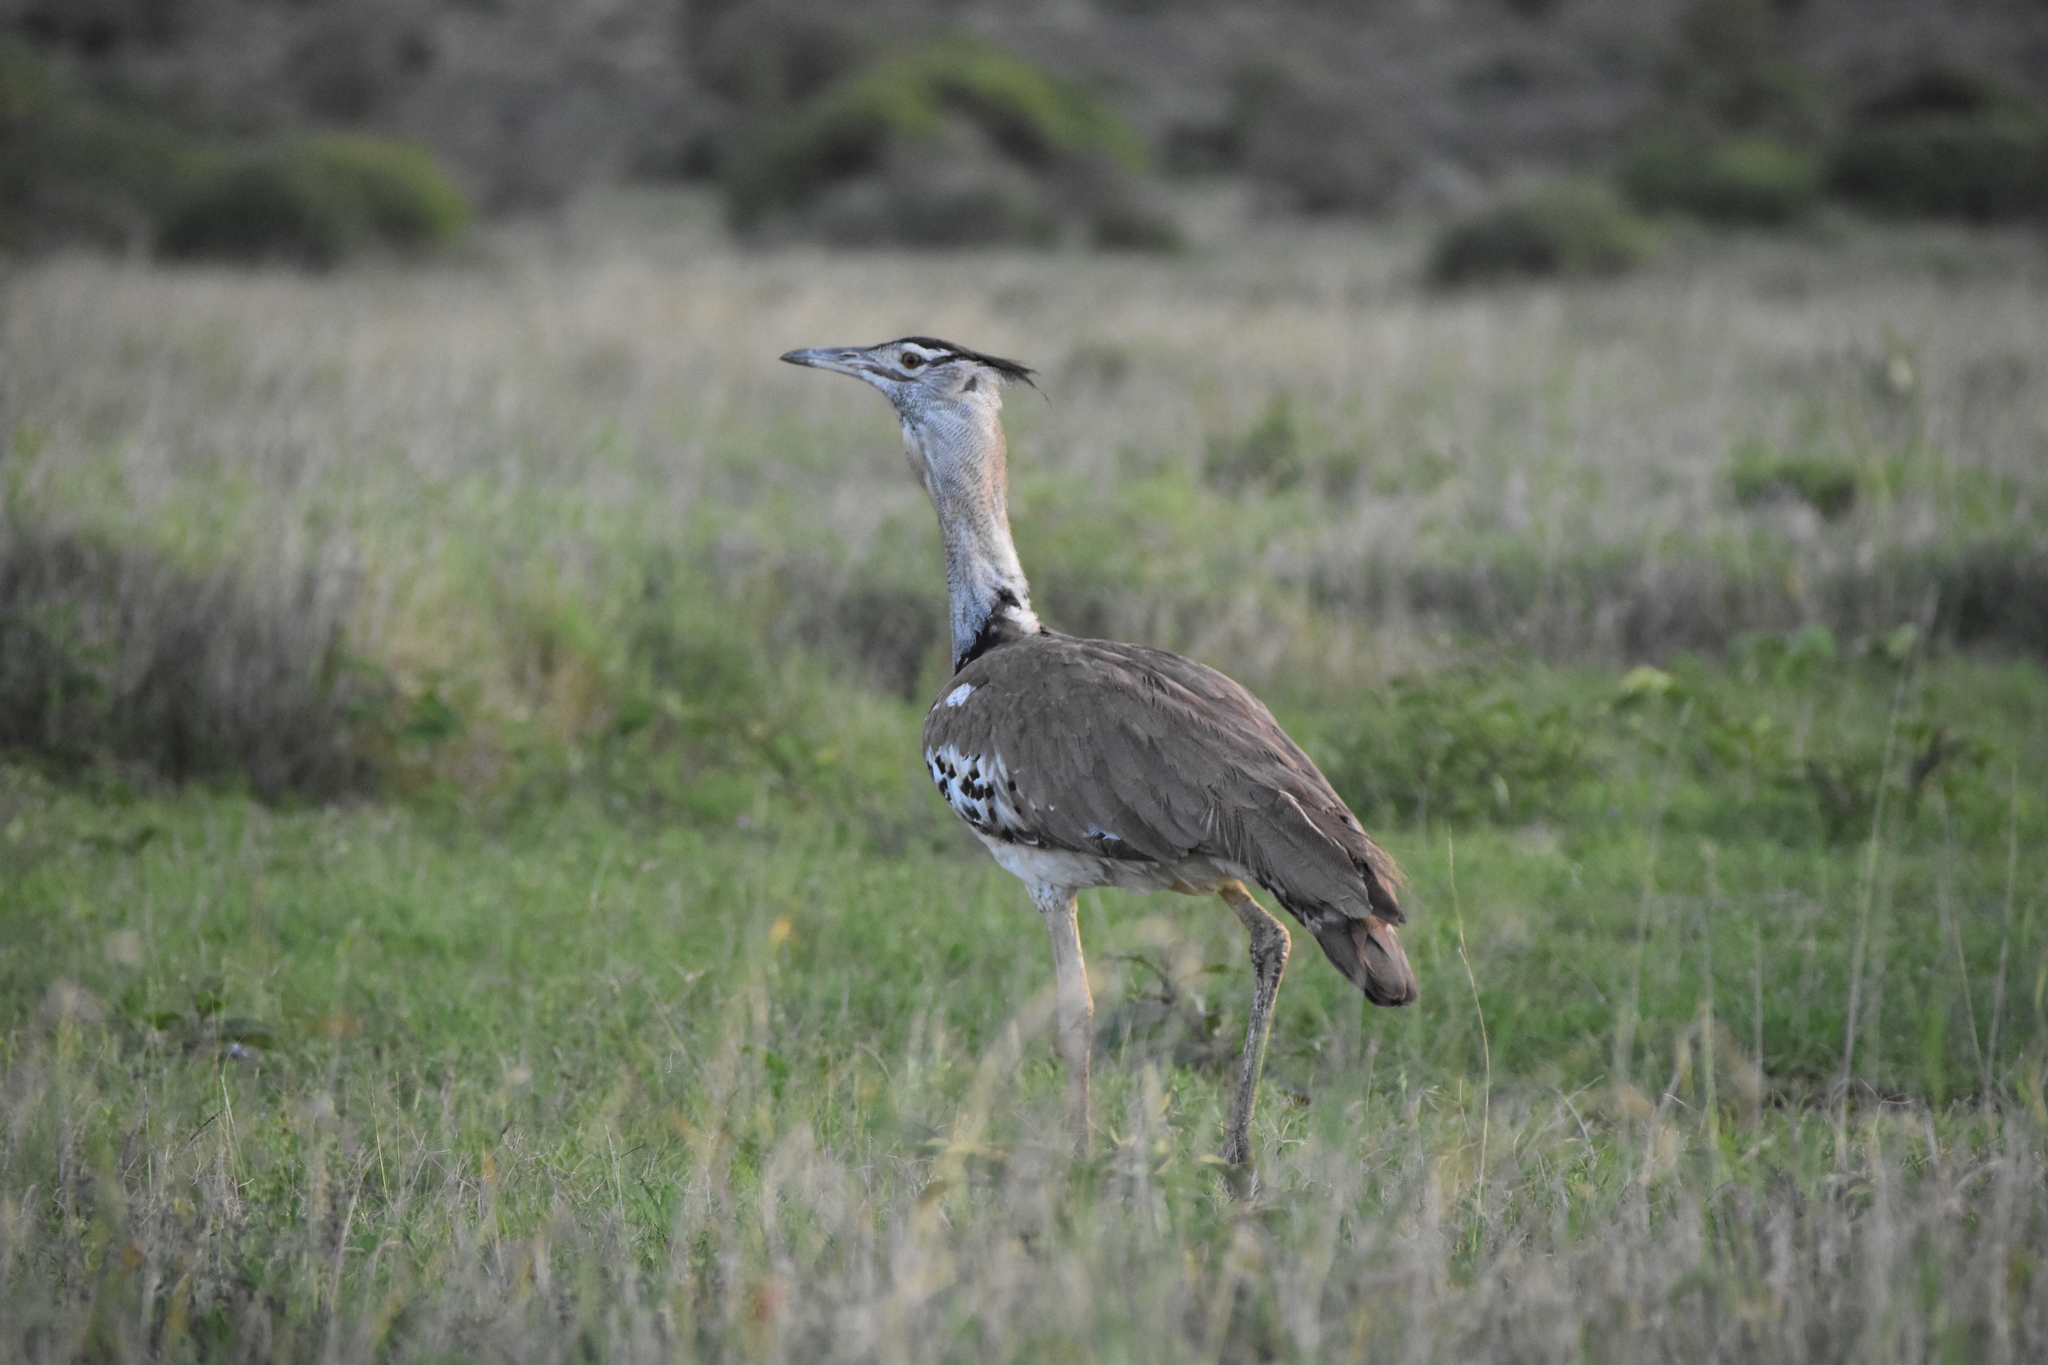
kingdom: Animalia
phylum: Chordata
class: Aves
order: Otidiformes
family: Otididae
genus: Ardeotis
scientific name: Ardeotis kori
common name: Kori bustard
